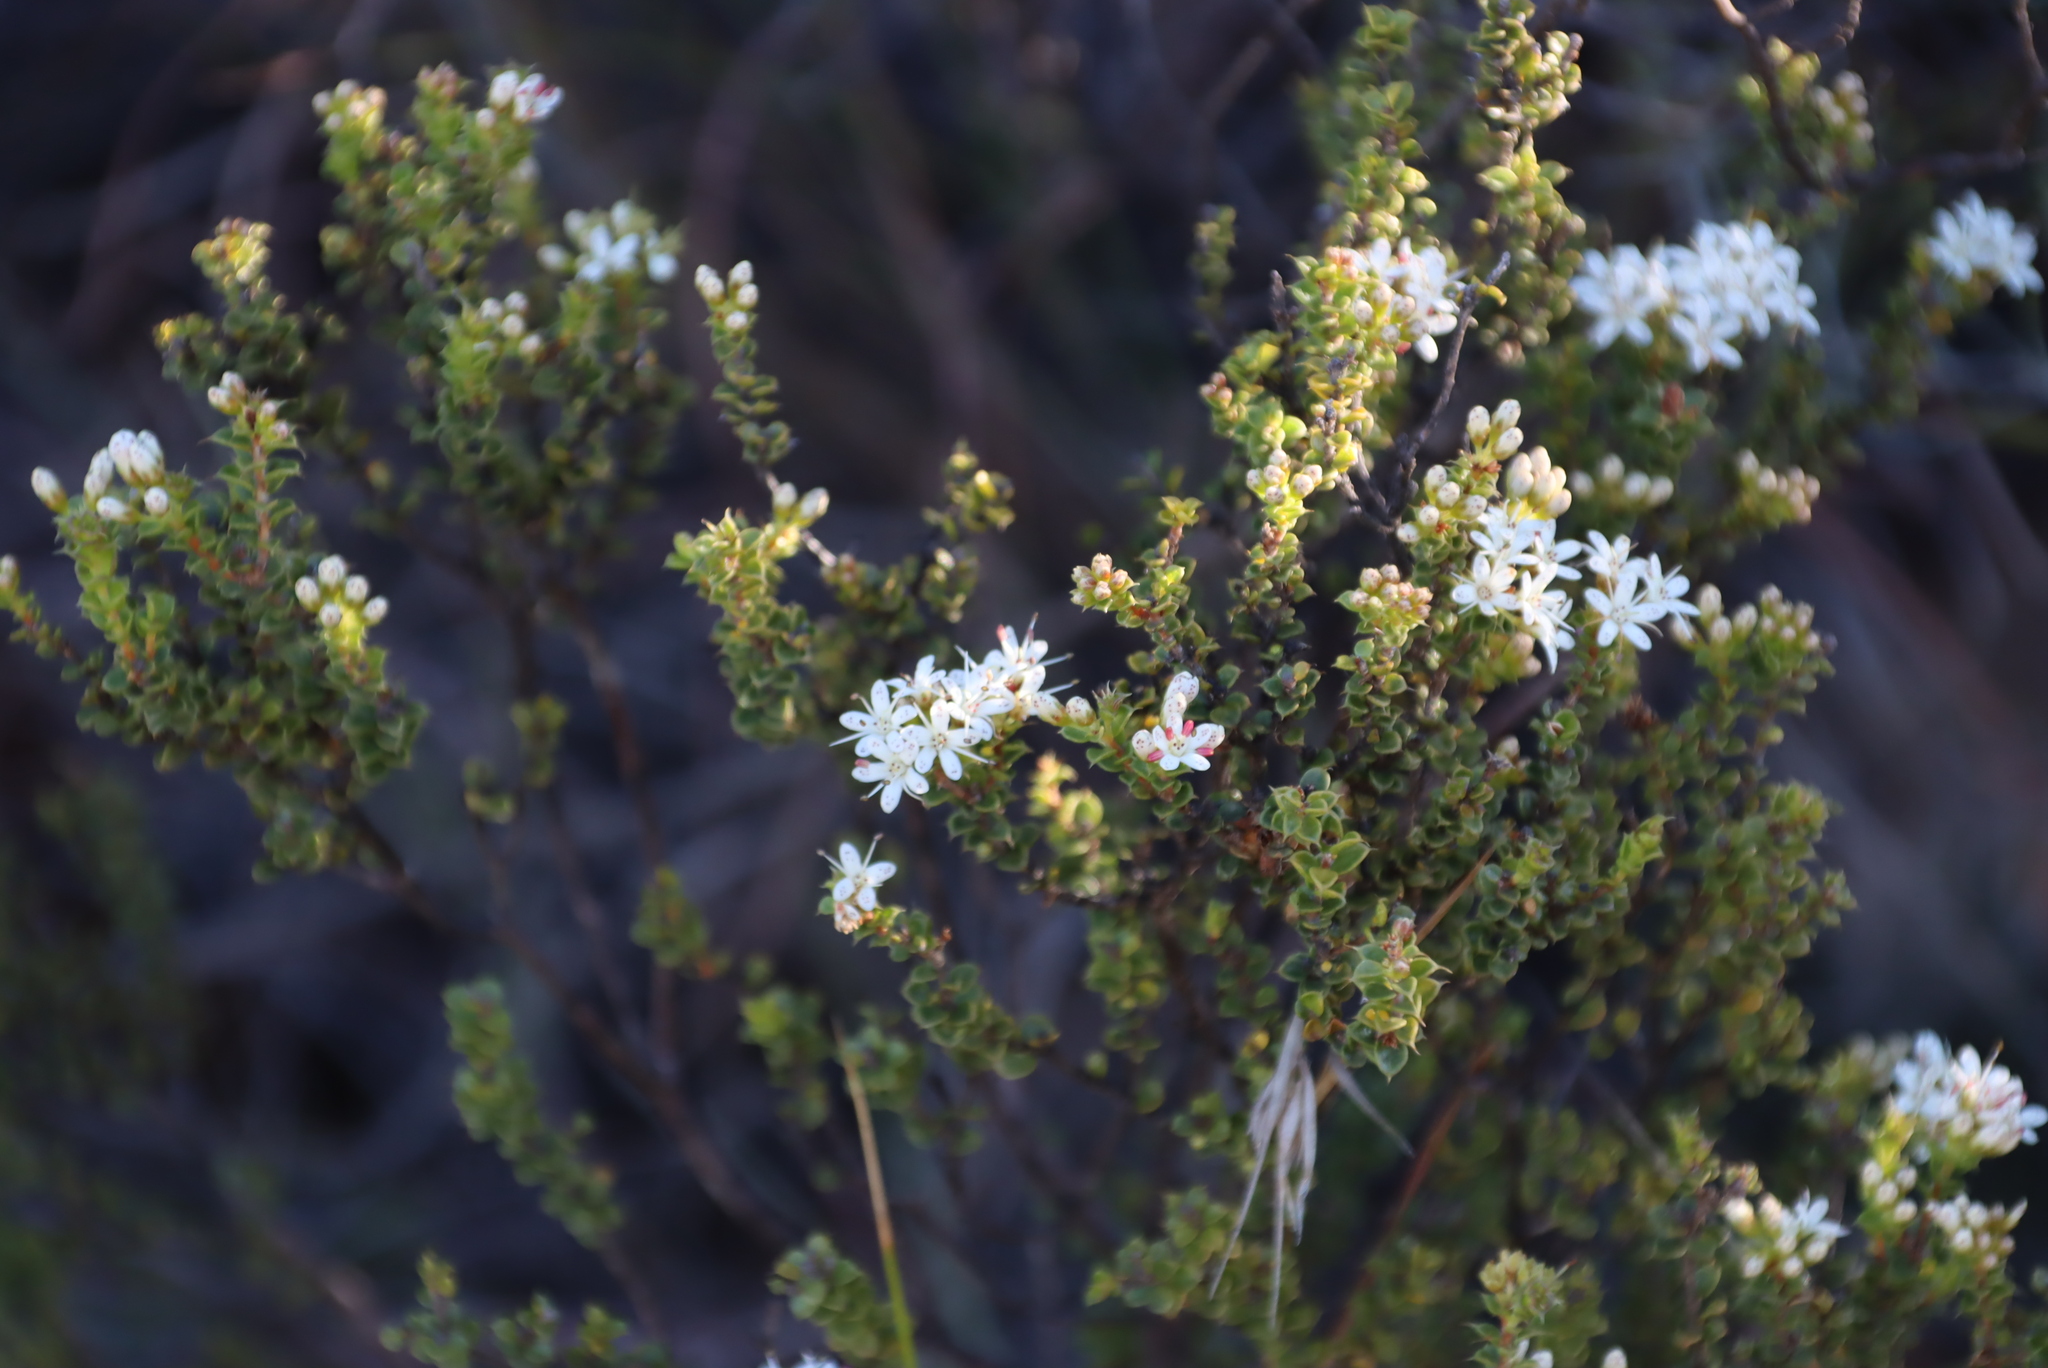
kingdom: Plantae
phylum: Tracheophyta
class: Magnoliopsida
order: Sapindales
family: Rutaceae
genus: Agathosma
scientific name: Agathosma recurvifolia
